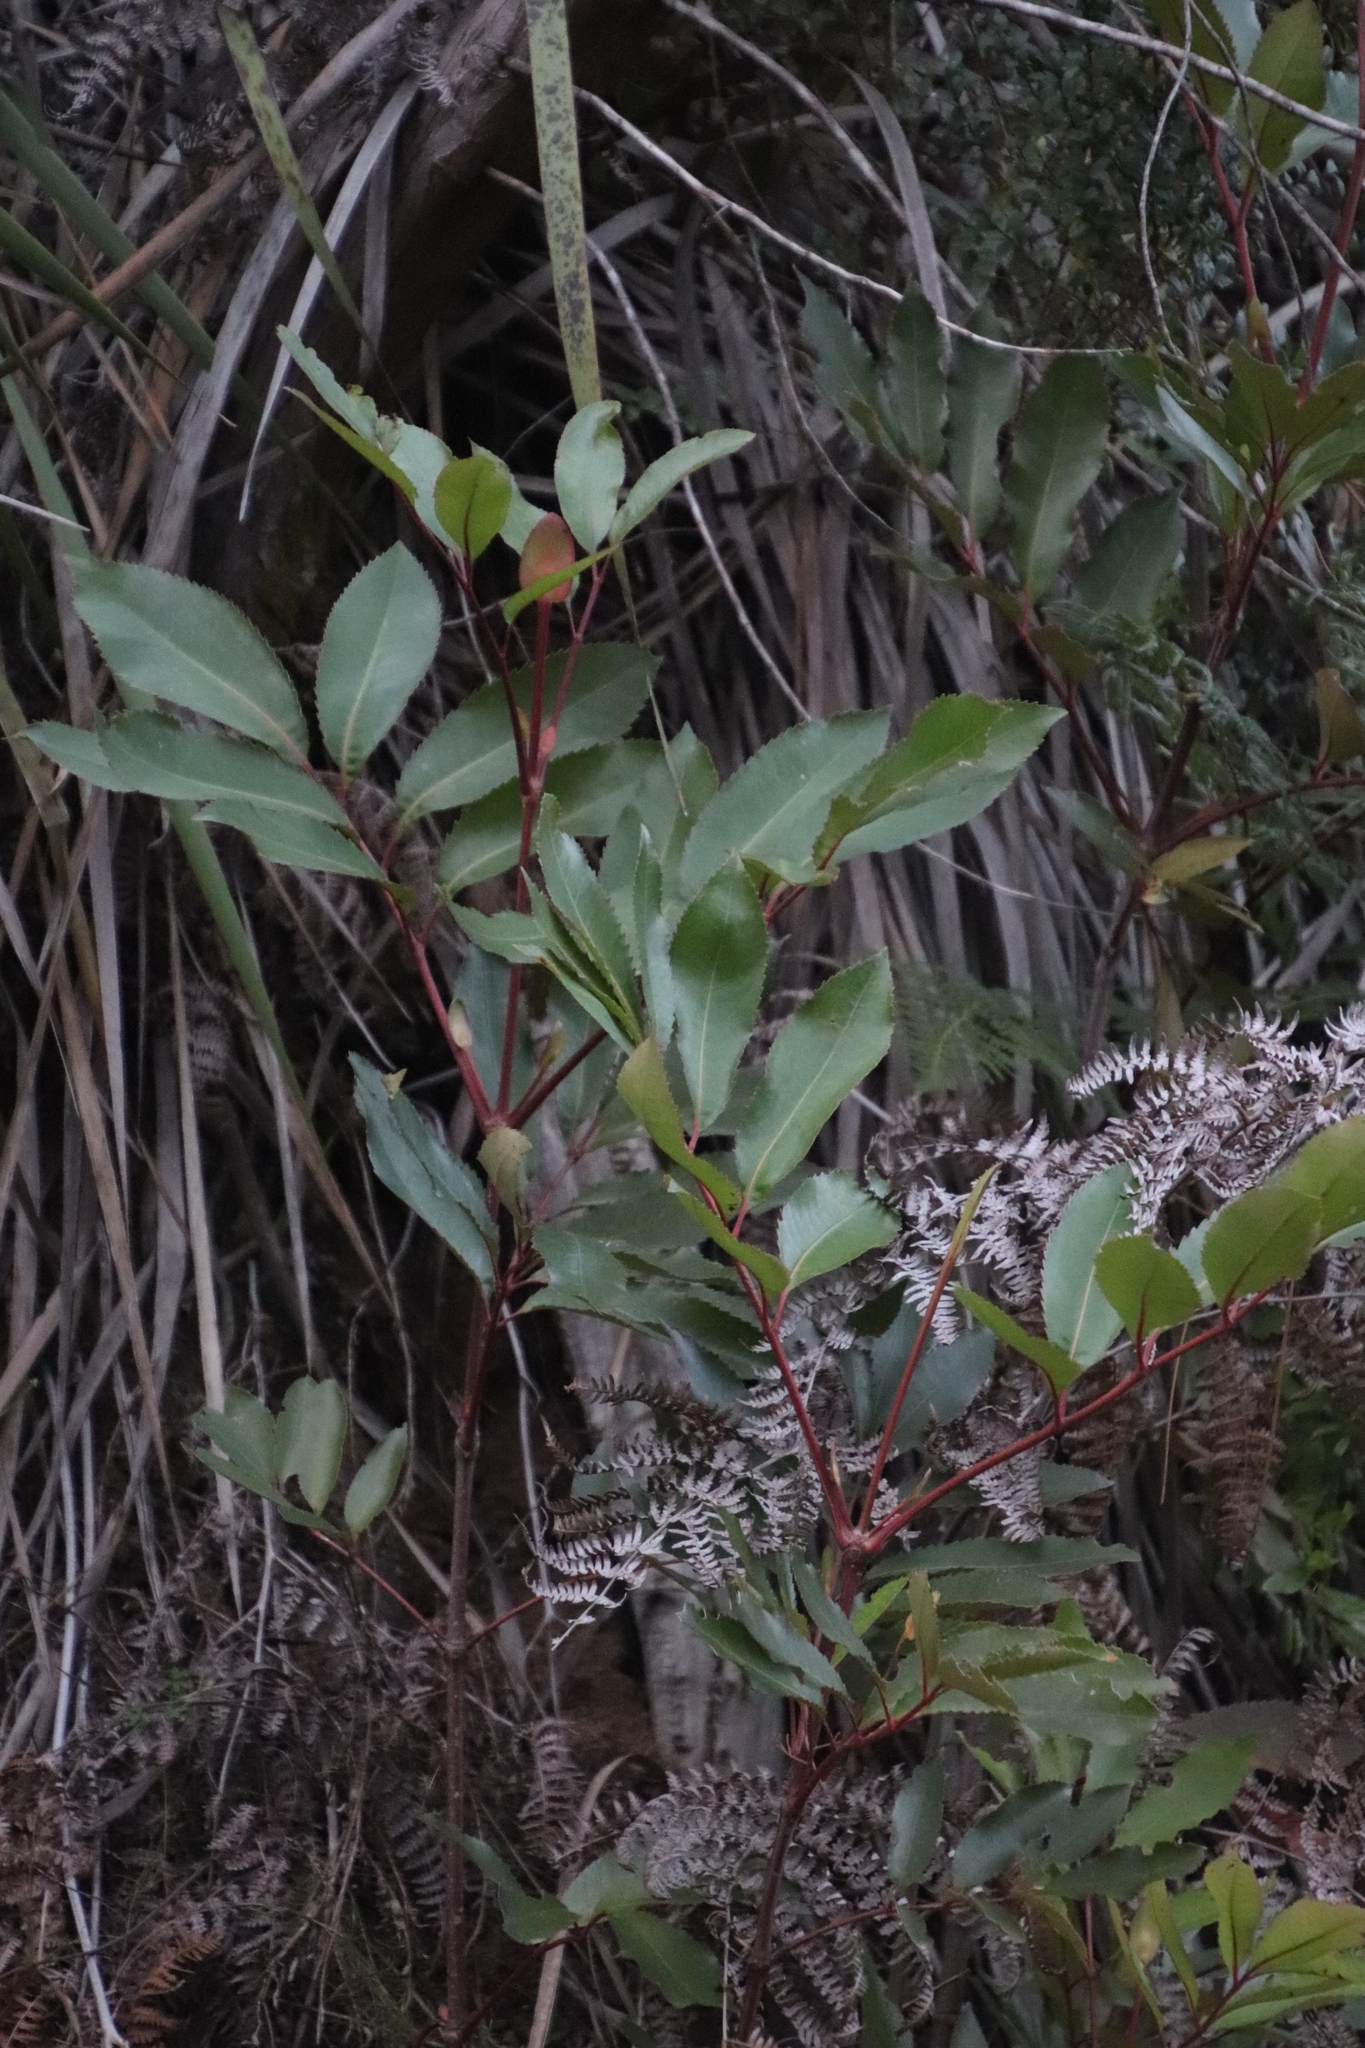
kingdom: Plantae
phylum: Tracheophyta
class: Magnoliopsida
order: Oxalidales
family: Cunoniaceae
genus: Cunonia
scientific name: Cunonia capensis
